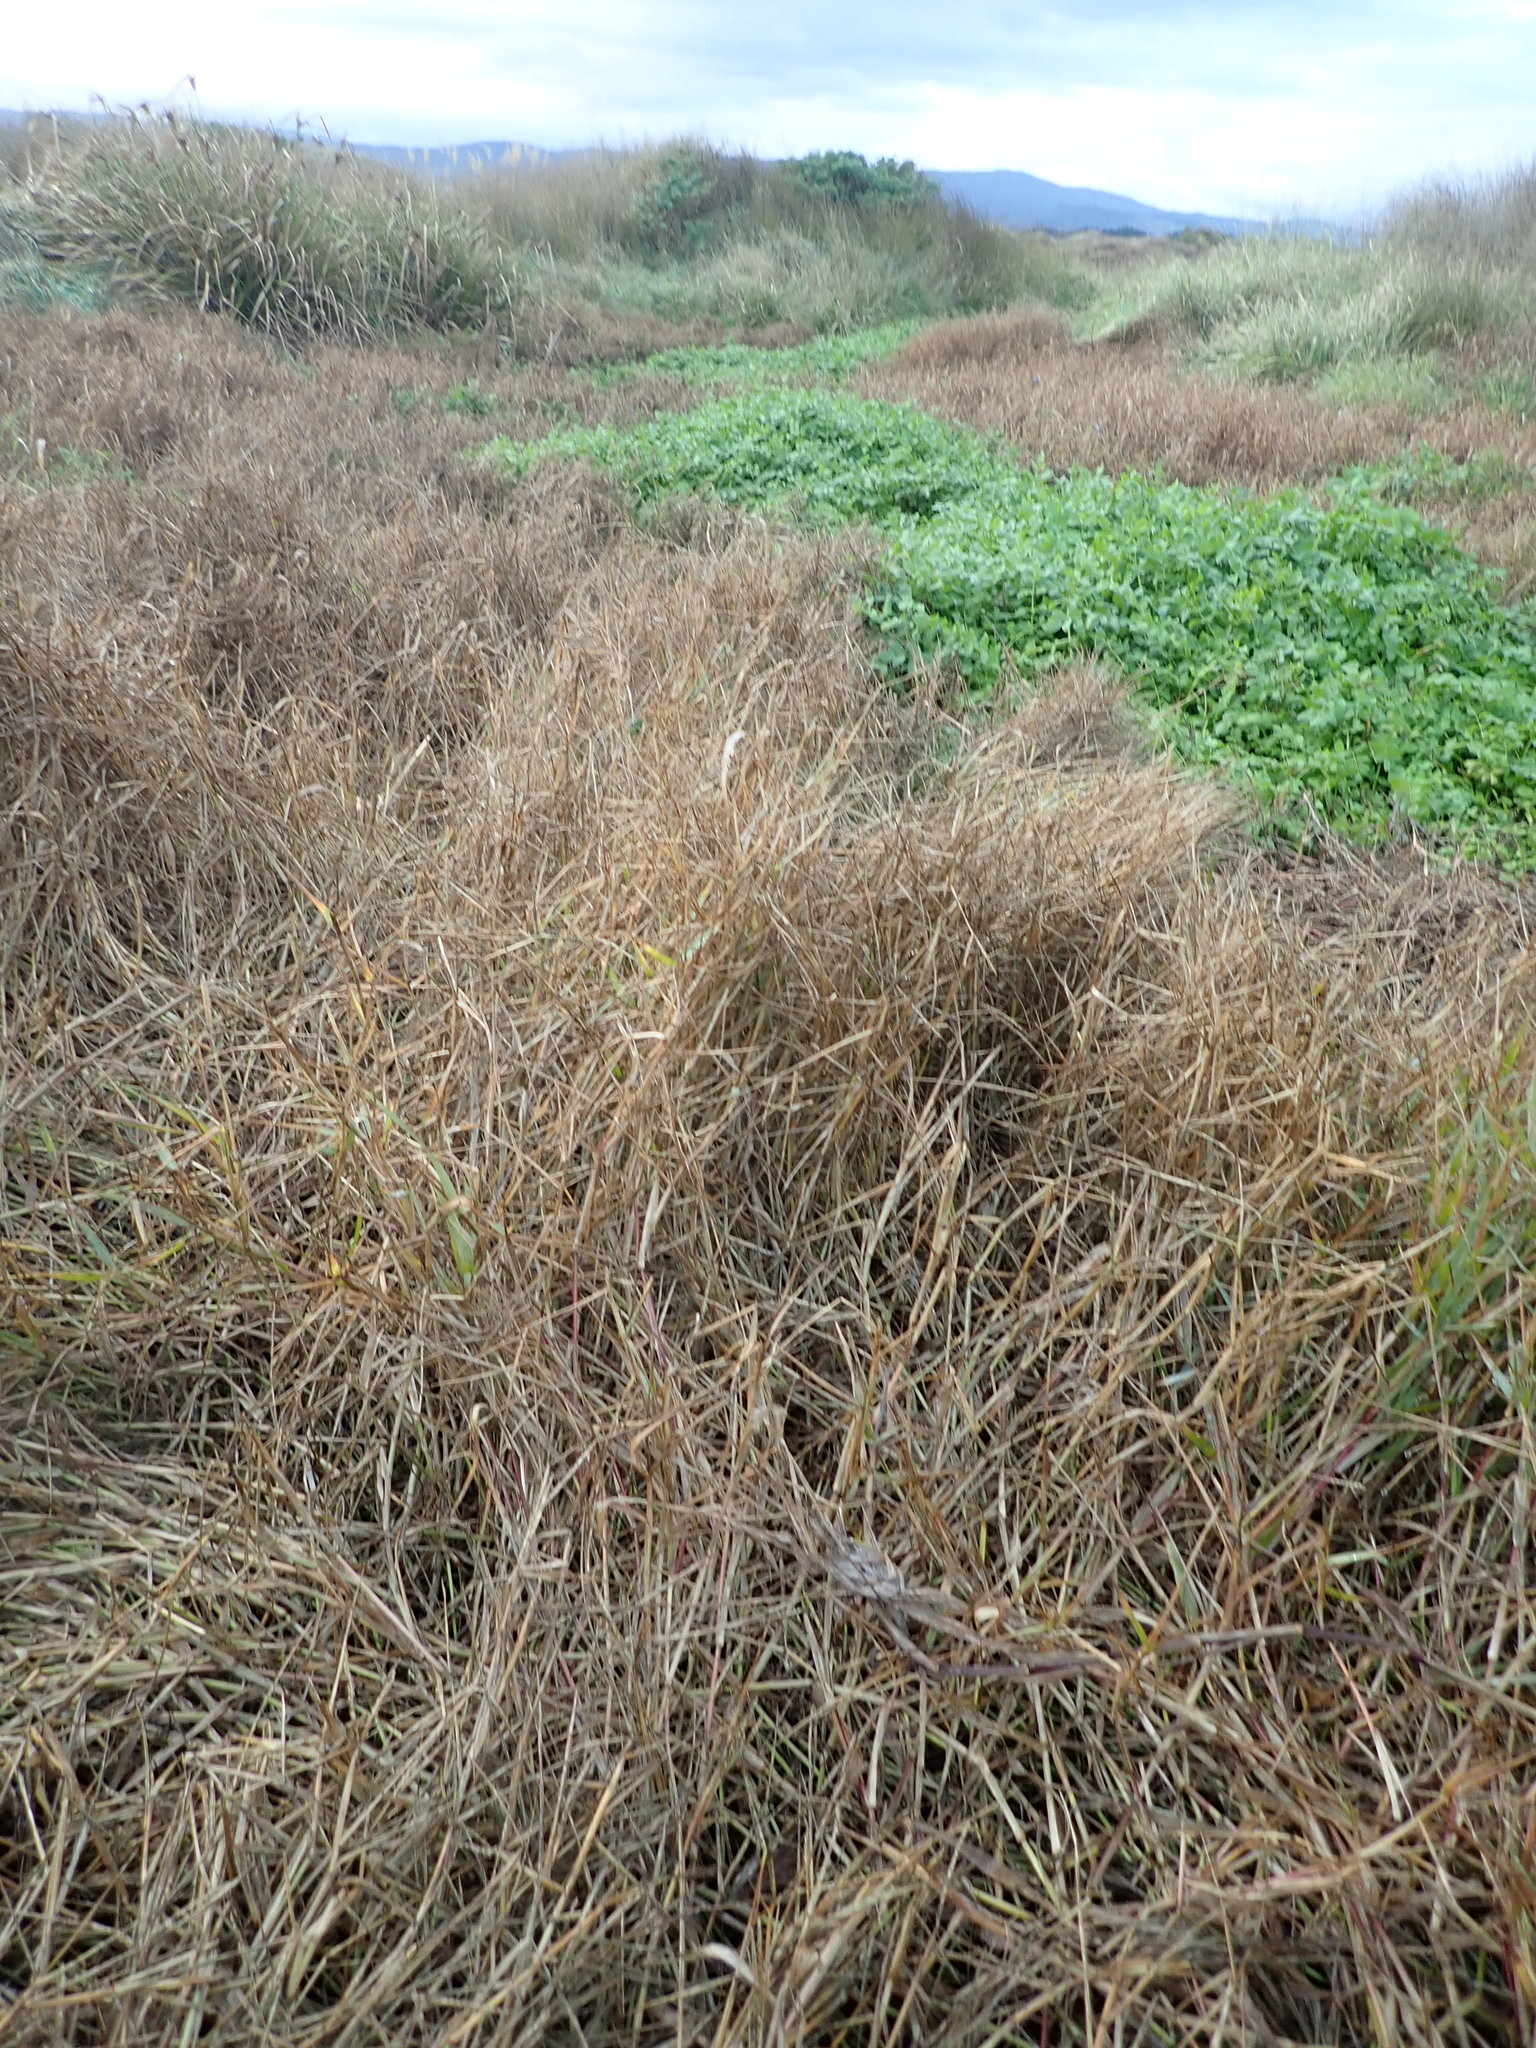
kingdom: Plantae
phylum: Tracheophyta
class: Magnoliopsida
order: Apiales
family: Apiaceae
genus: Helosciadium
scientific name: Helosciadium nodiflorum
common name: Fool's-watercress
